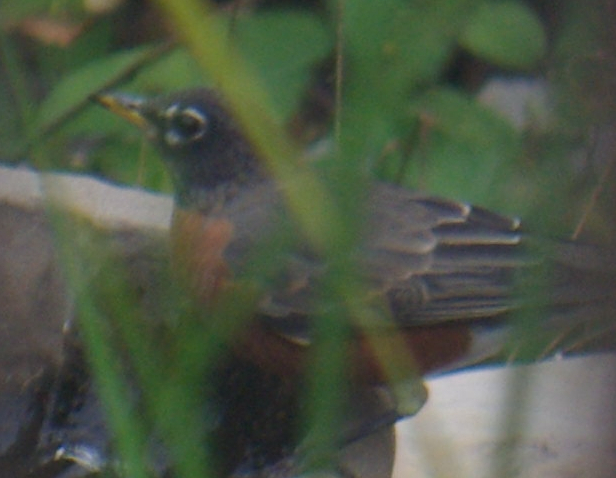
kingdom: Animalia
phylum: Chordata
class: Aves
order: Passeriformes
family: Turdidae
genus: Turdus
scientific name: Turdus migratorius
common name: American robin
